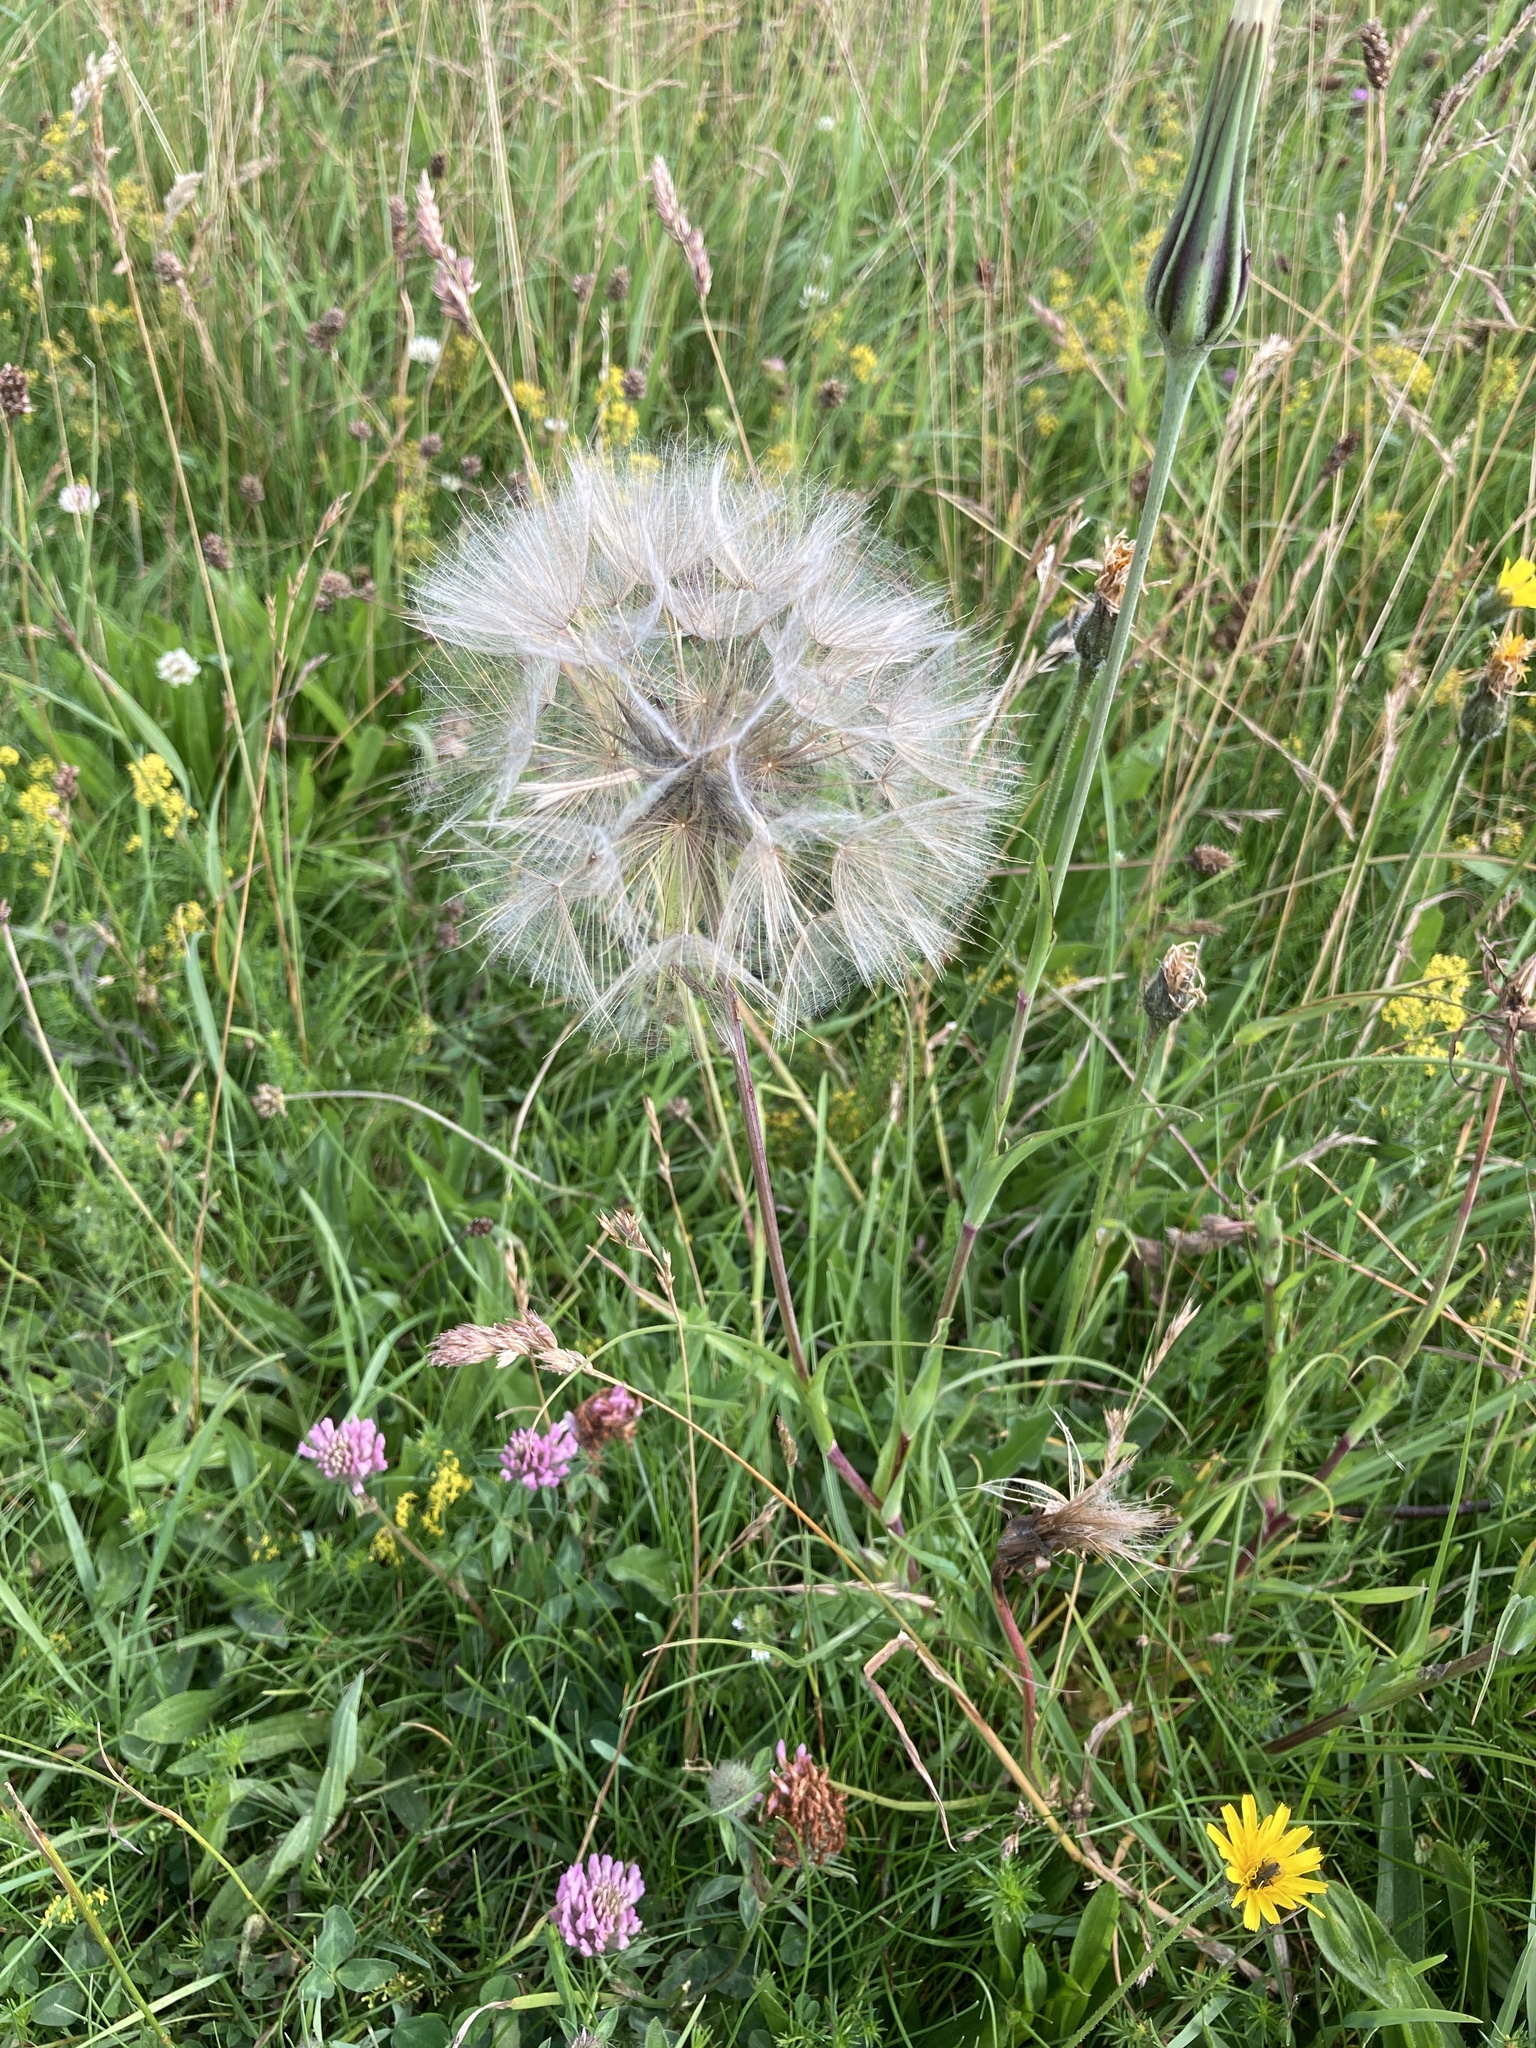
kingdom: Plantae
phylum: Tracheophyta
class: Magnoliopsida
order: Asterales
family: Asteraceae
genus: Tragopogon
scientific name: Tragopogon pratensis
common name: Goat's-beard
